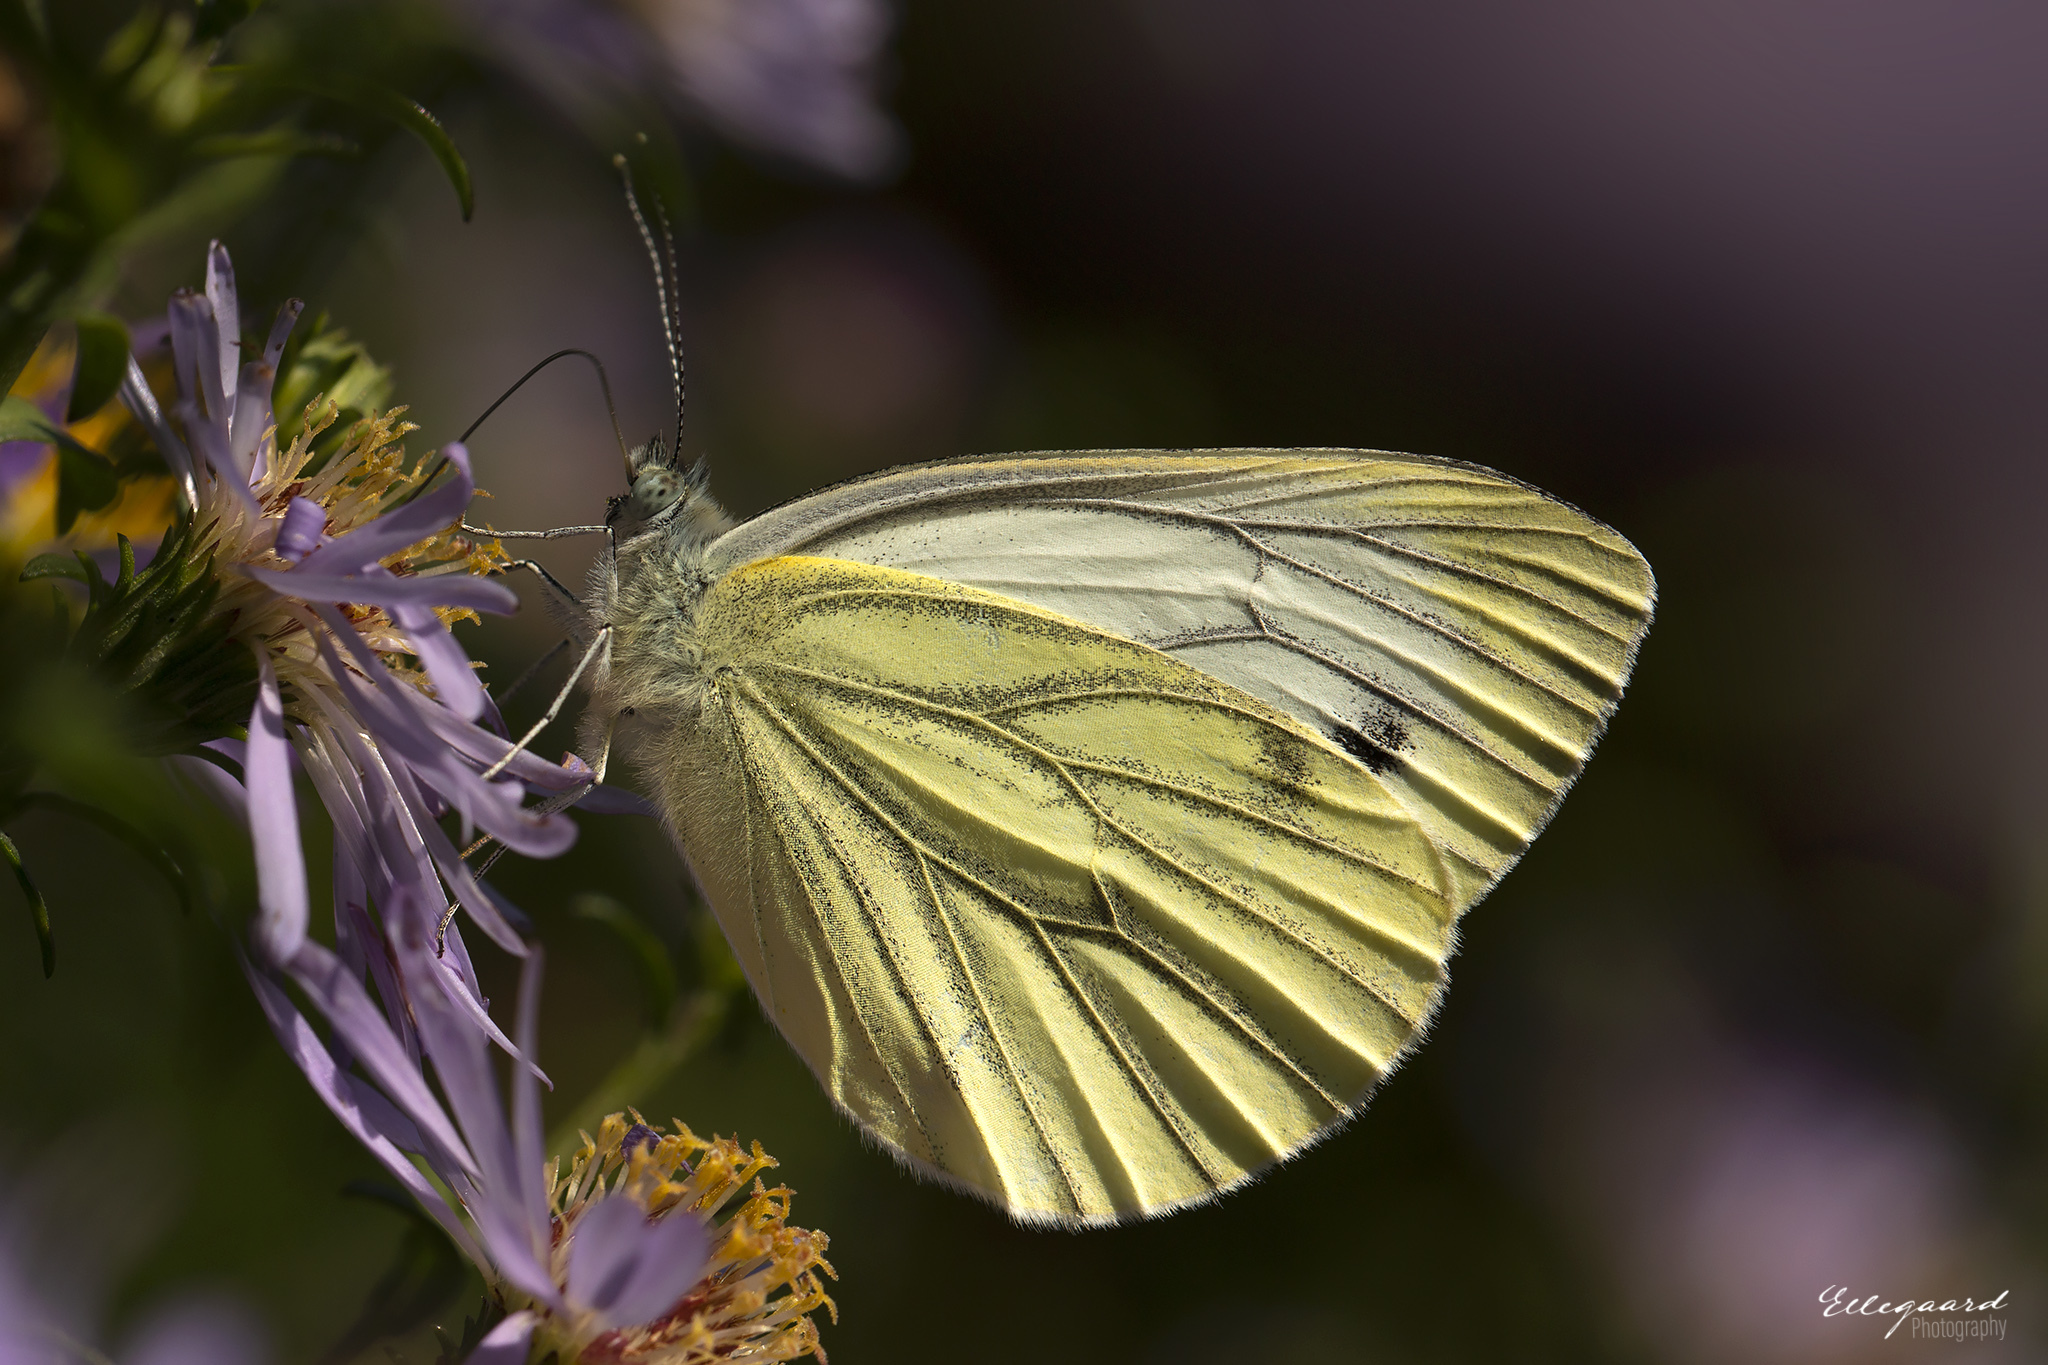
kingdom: Animalia
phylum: Arthropoda
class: Insecta
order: Lepidoptera
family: Pieridae
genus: Pieris
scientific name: Pieris napi
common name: Green-veined white
